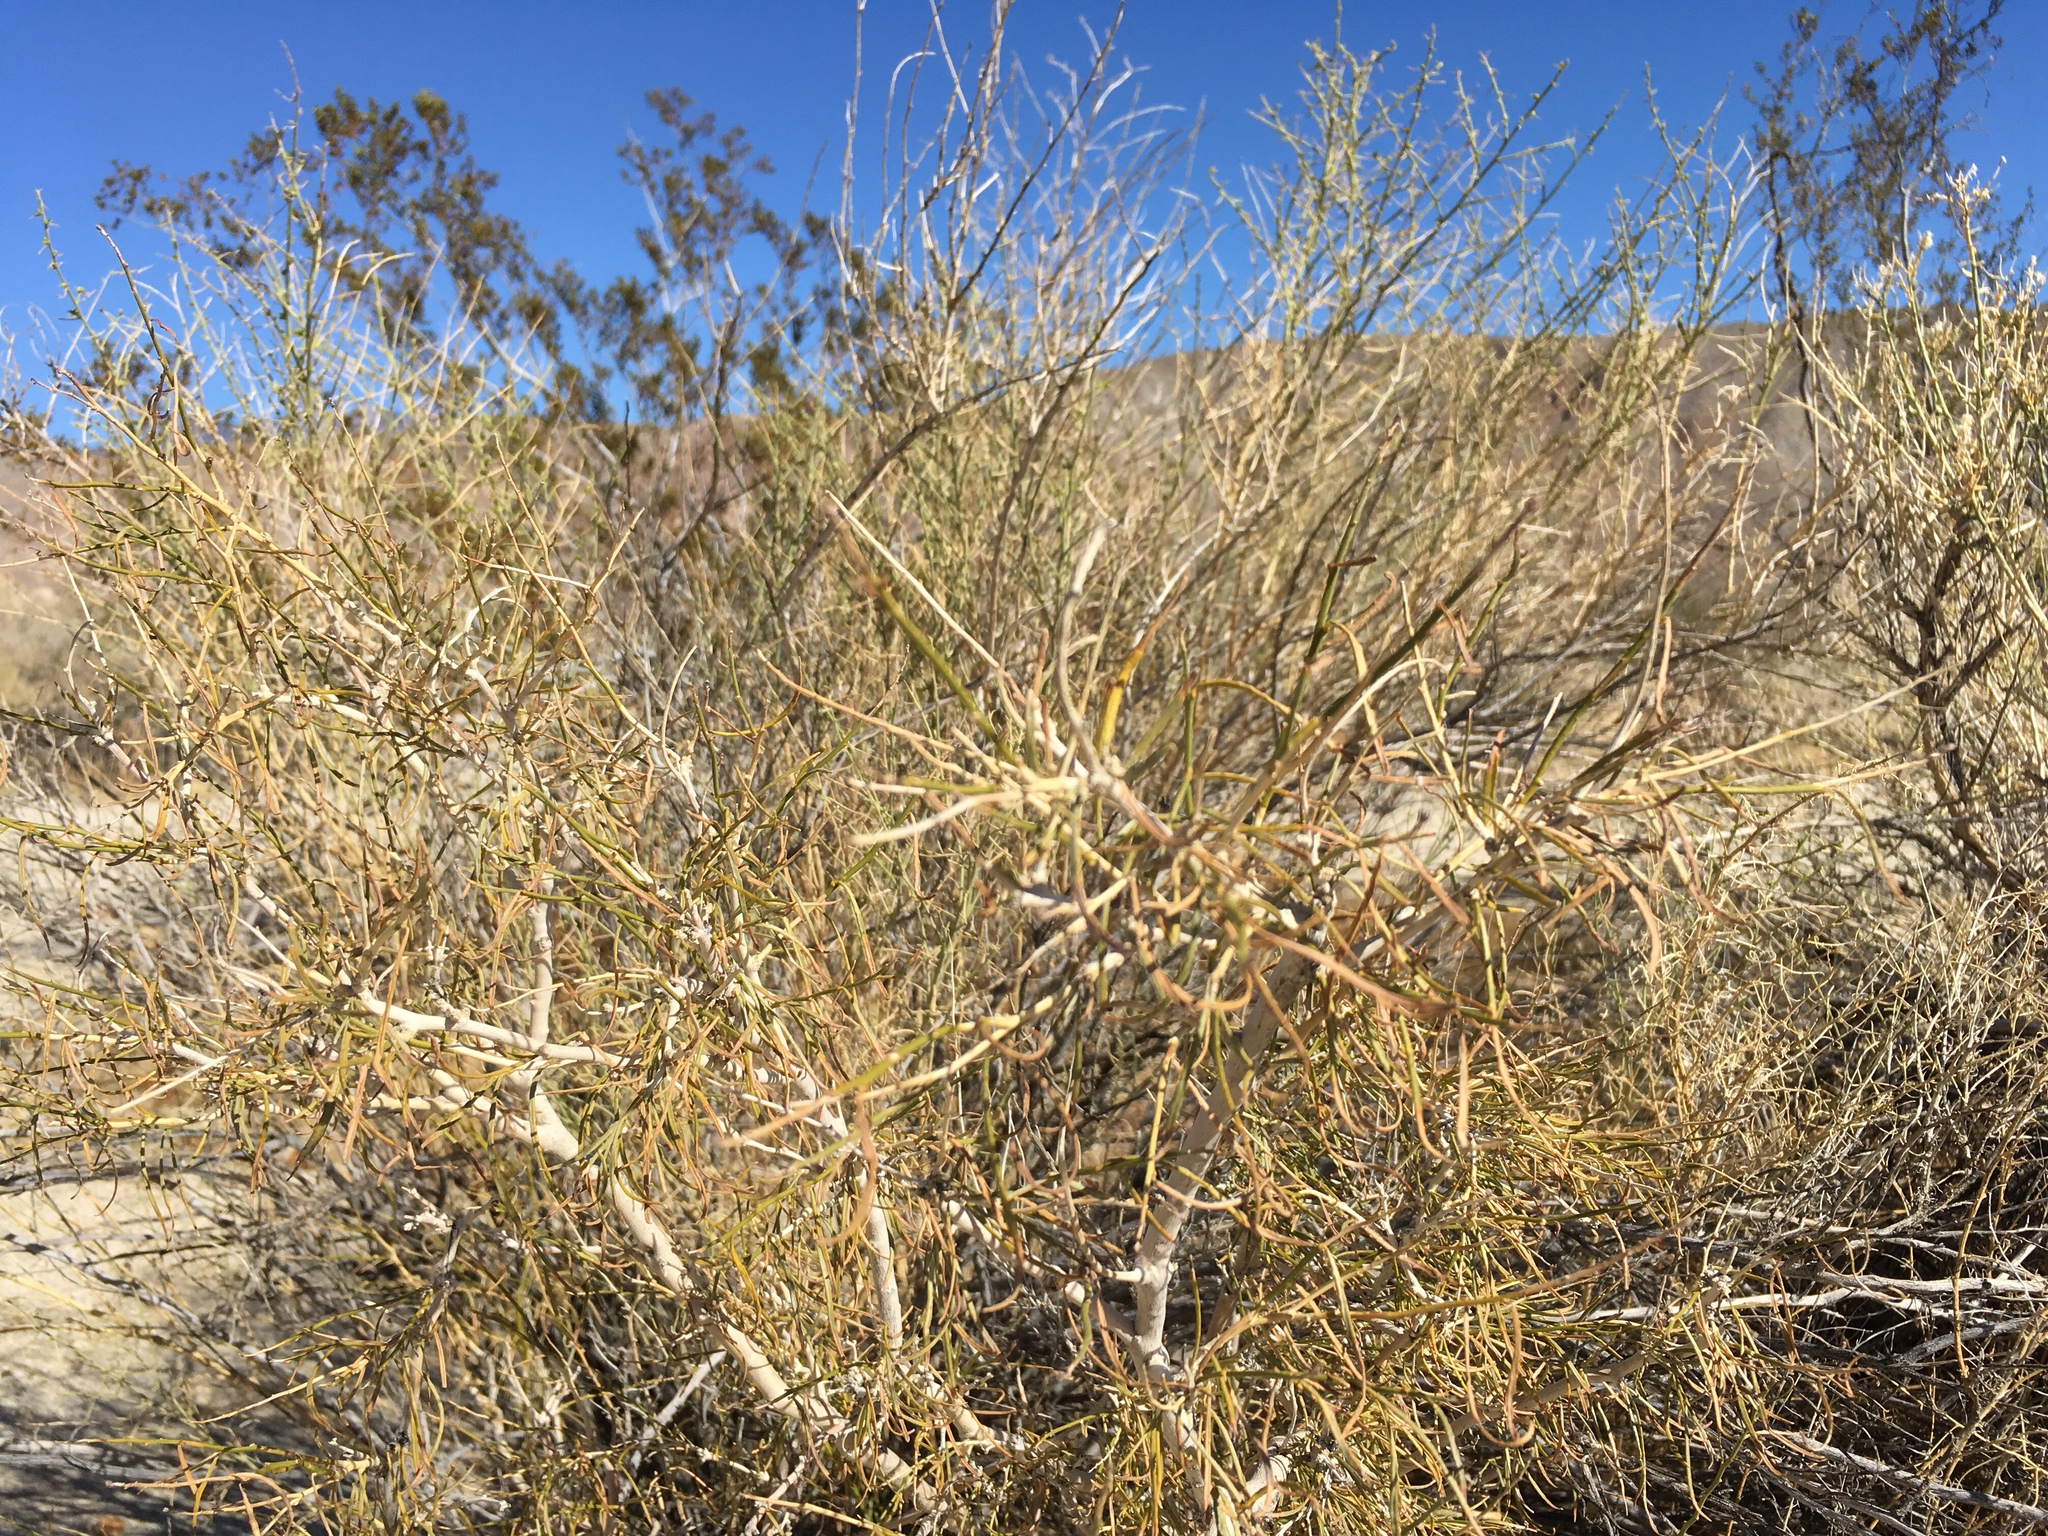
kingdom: Plantae
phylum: Tracheophyta
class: Magnoliopsida
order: Fabales
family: Fabaceae
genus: Psorothamnus
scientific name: Psorothamnus schottii
